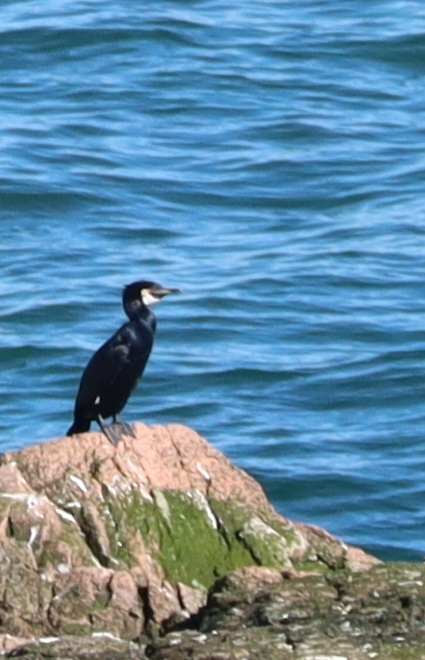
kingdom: Animalia
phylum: Chordata
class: Aves
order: Suliformes
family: Phalacrocoracidae
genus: Phalacrocorax
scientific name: Phalacrocorax carbo
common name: Great cormorant
